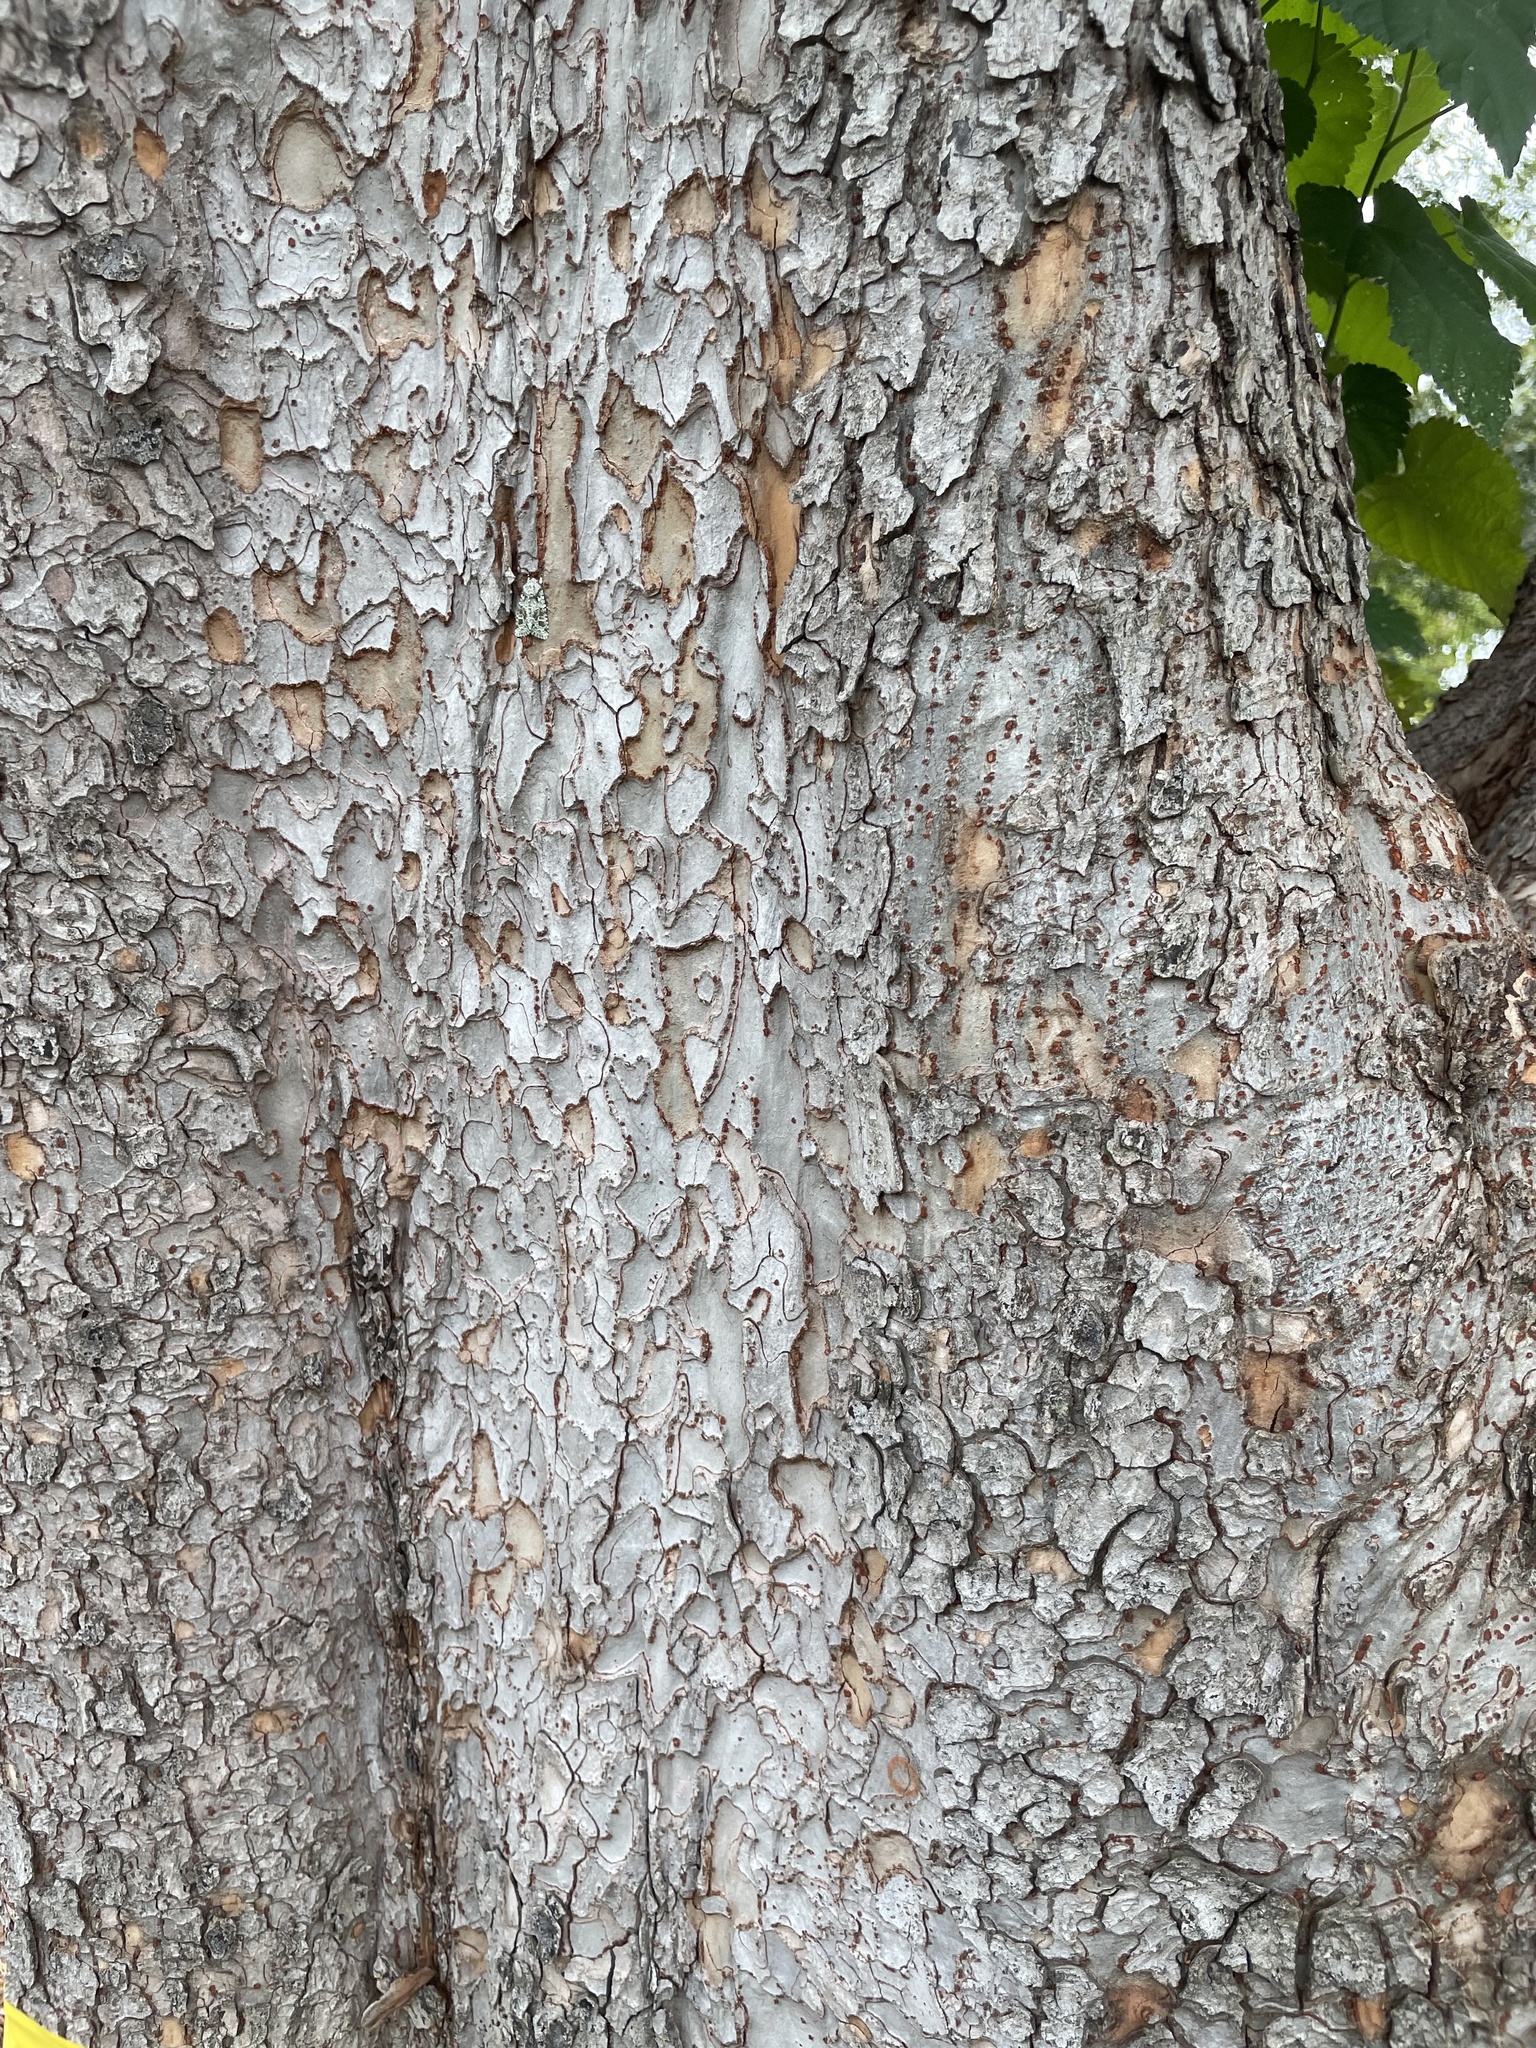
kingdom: Plantae
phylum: Tracheophyta
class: Magnoliopsida
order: Rosales
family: Moraceae
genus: Morus
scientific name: Morus alba
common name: White mulberry
